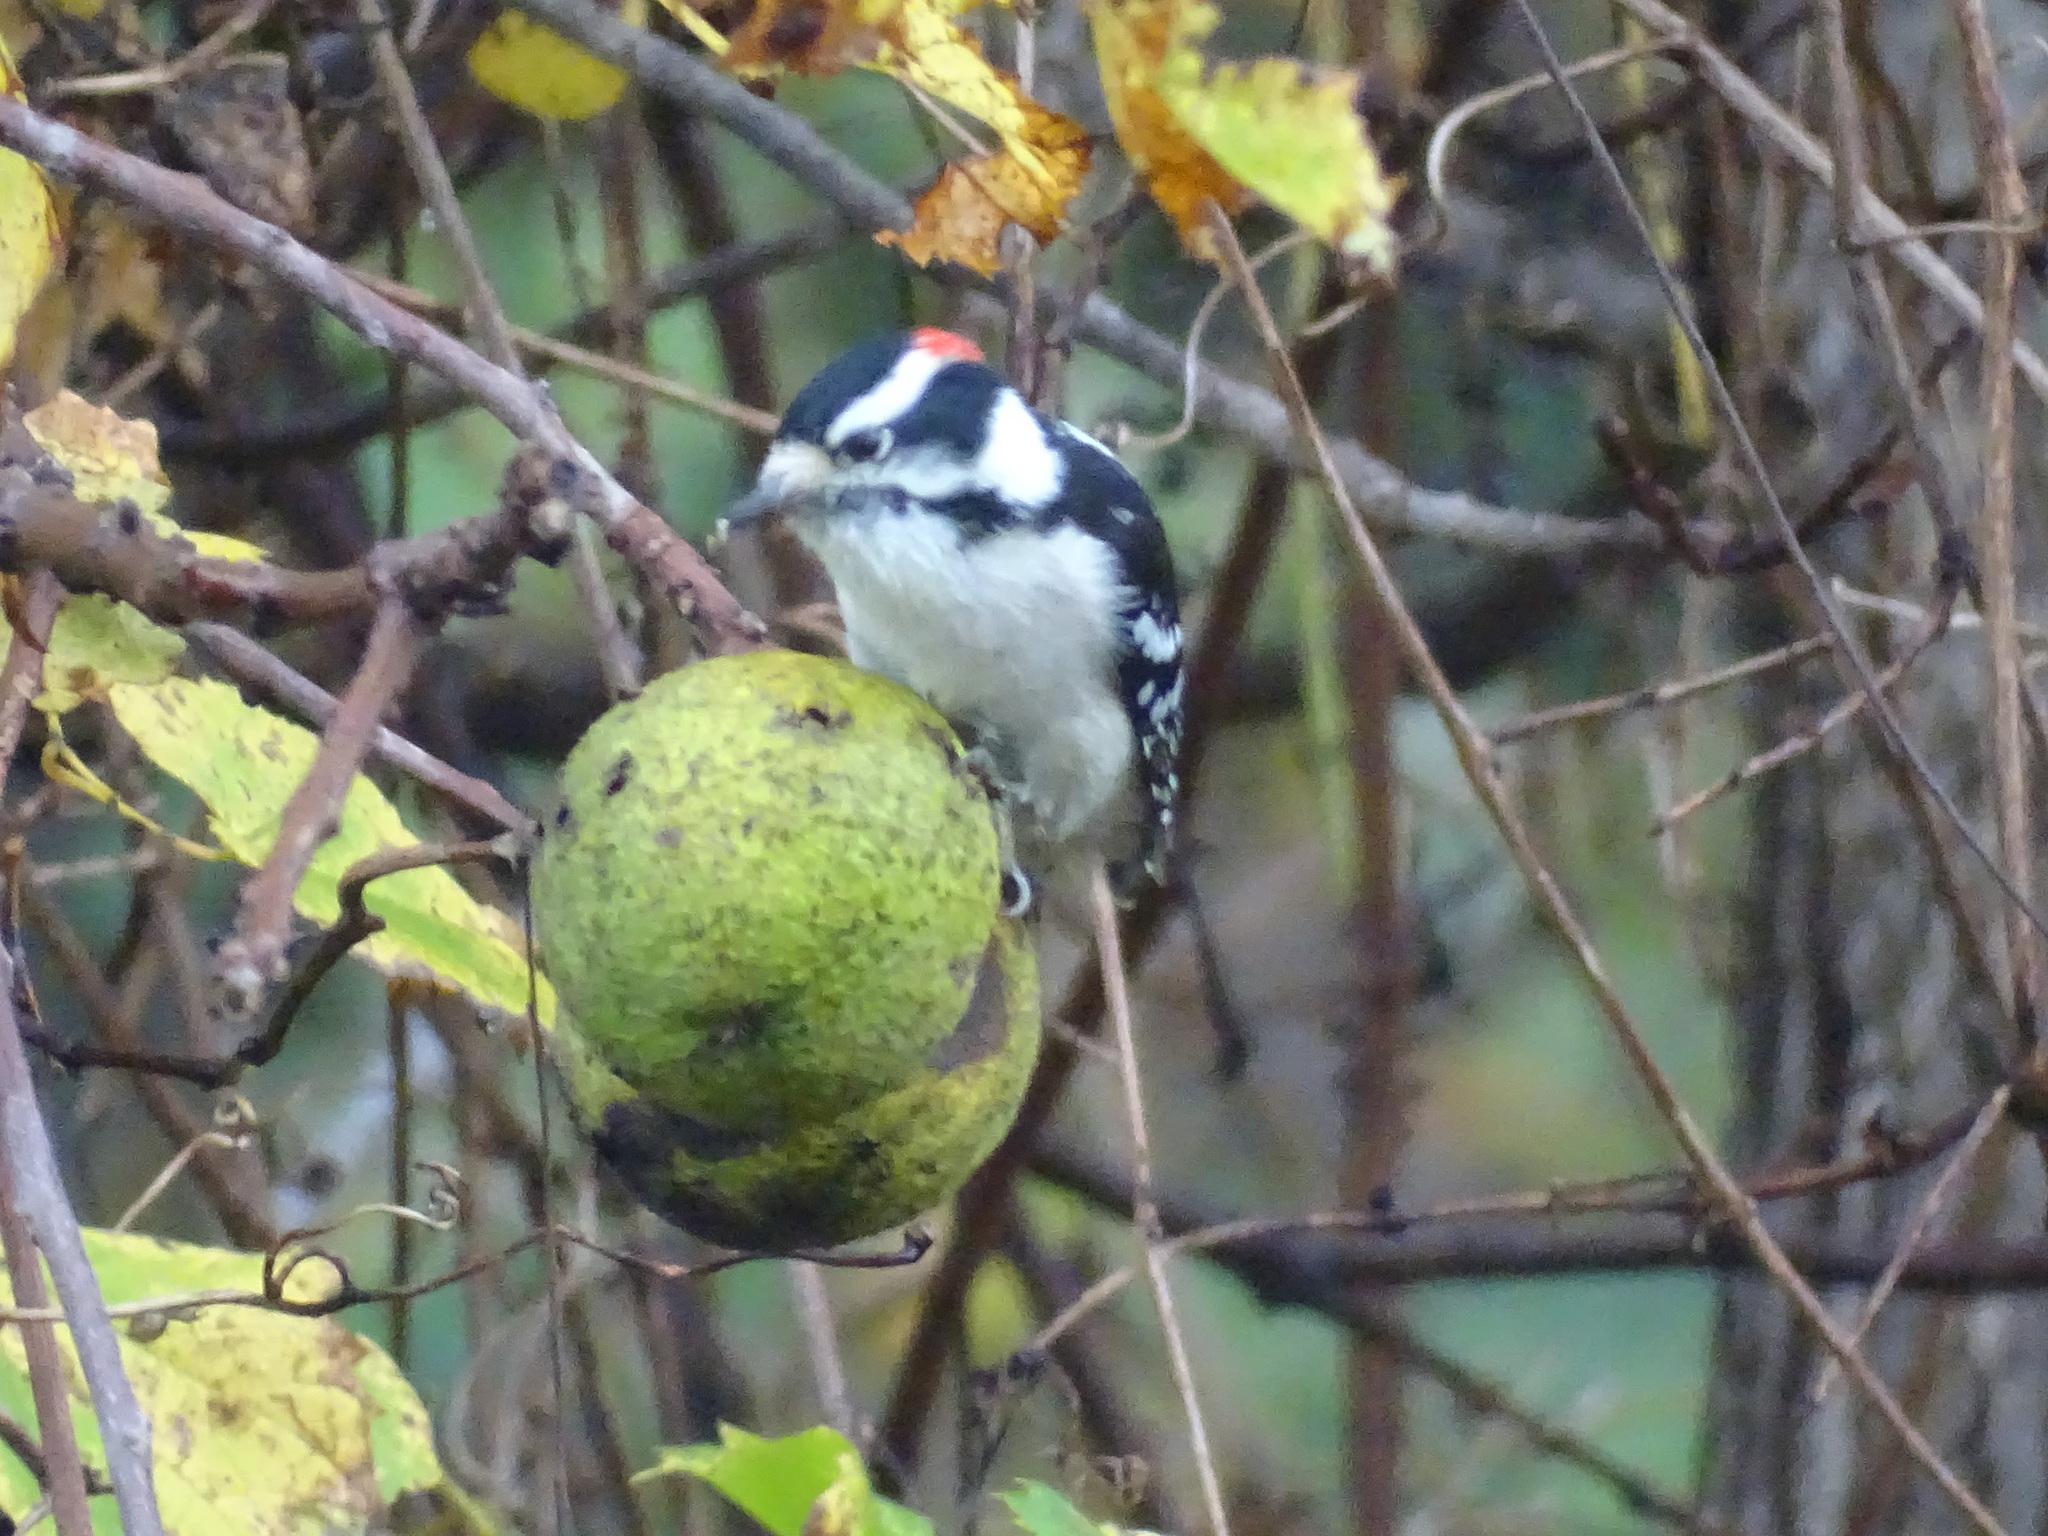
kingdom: Plantae
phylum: Tracheophyta
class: Magnoliopsida
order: Fagales
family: Juglandaceae
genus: Juglans
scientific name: Juglans nigra
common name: Black walnut
